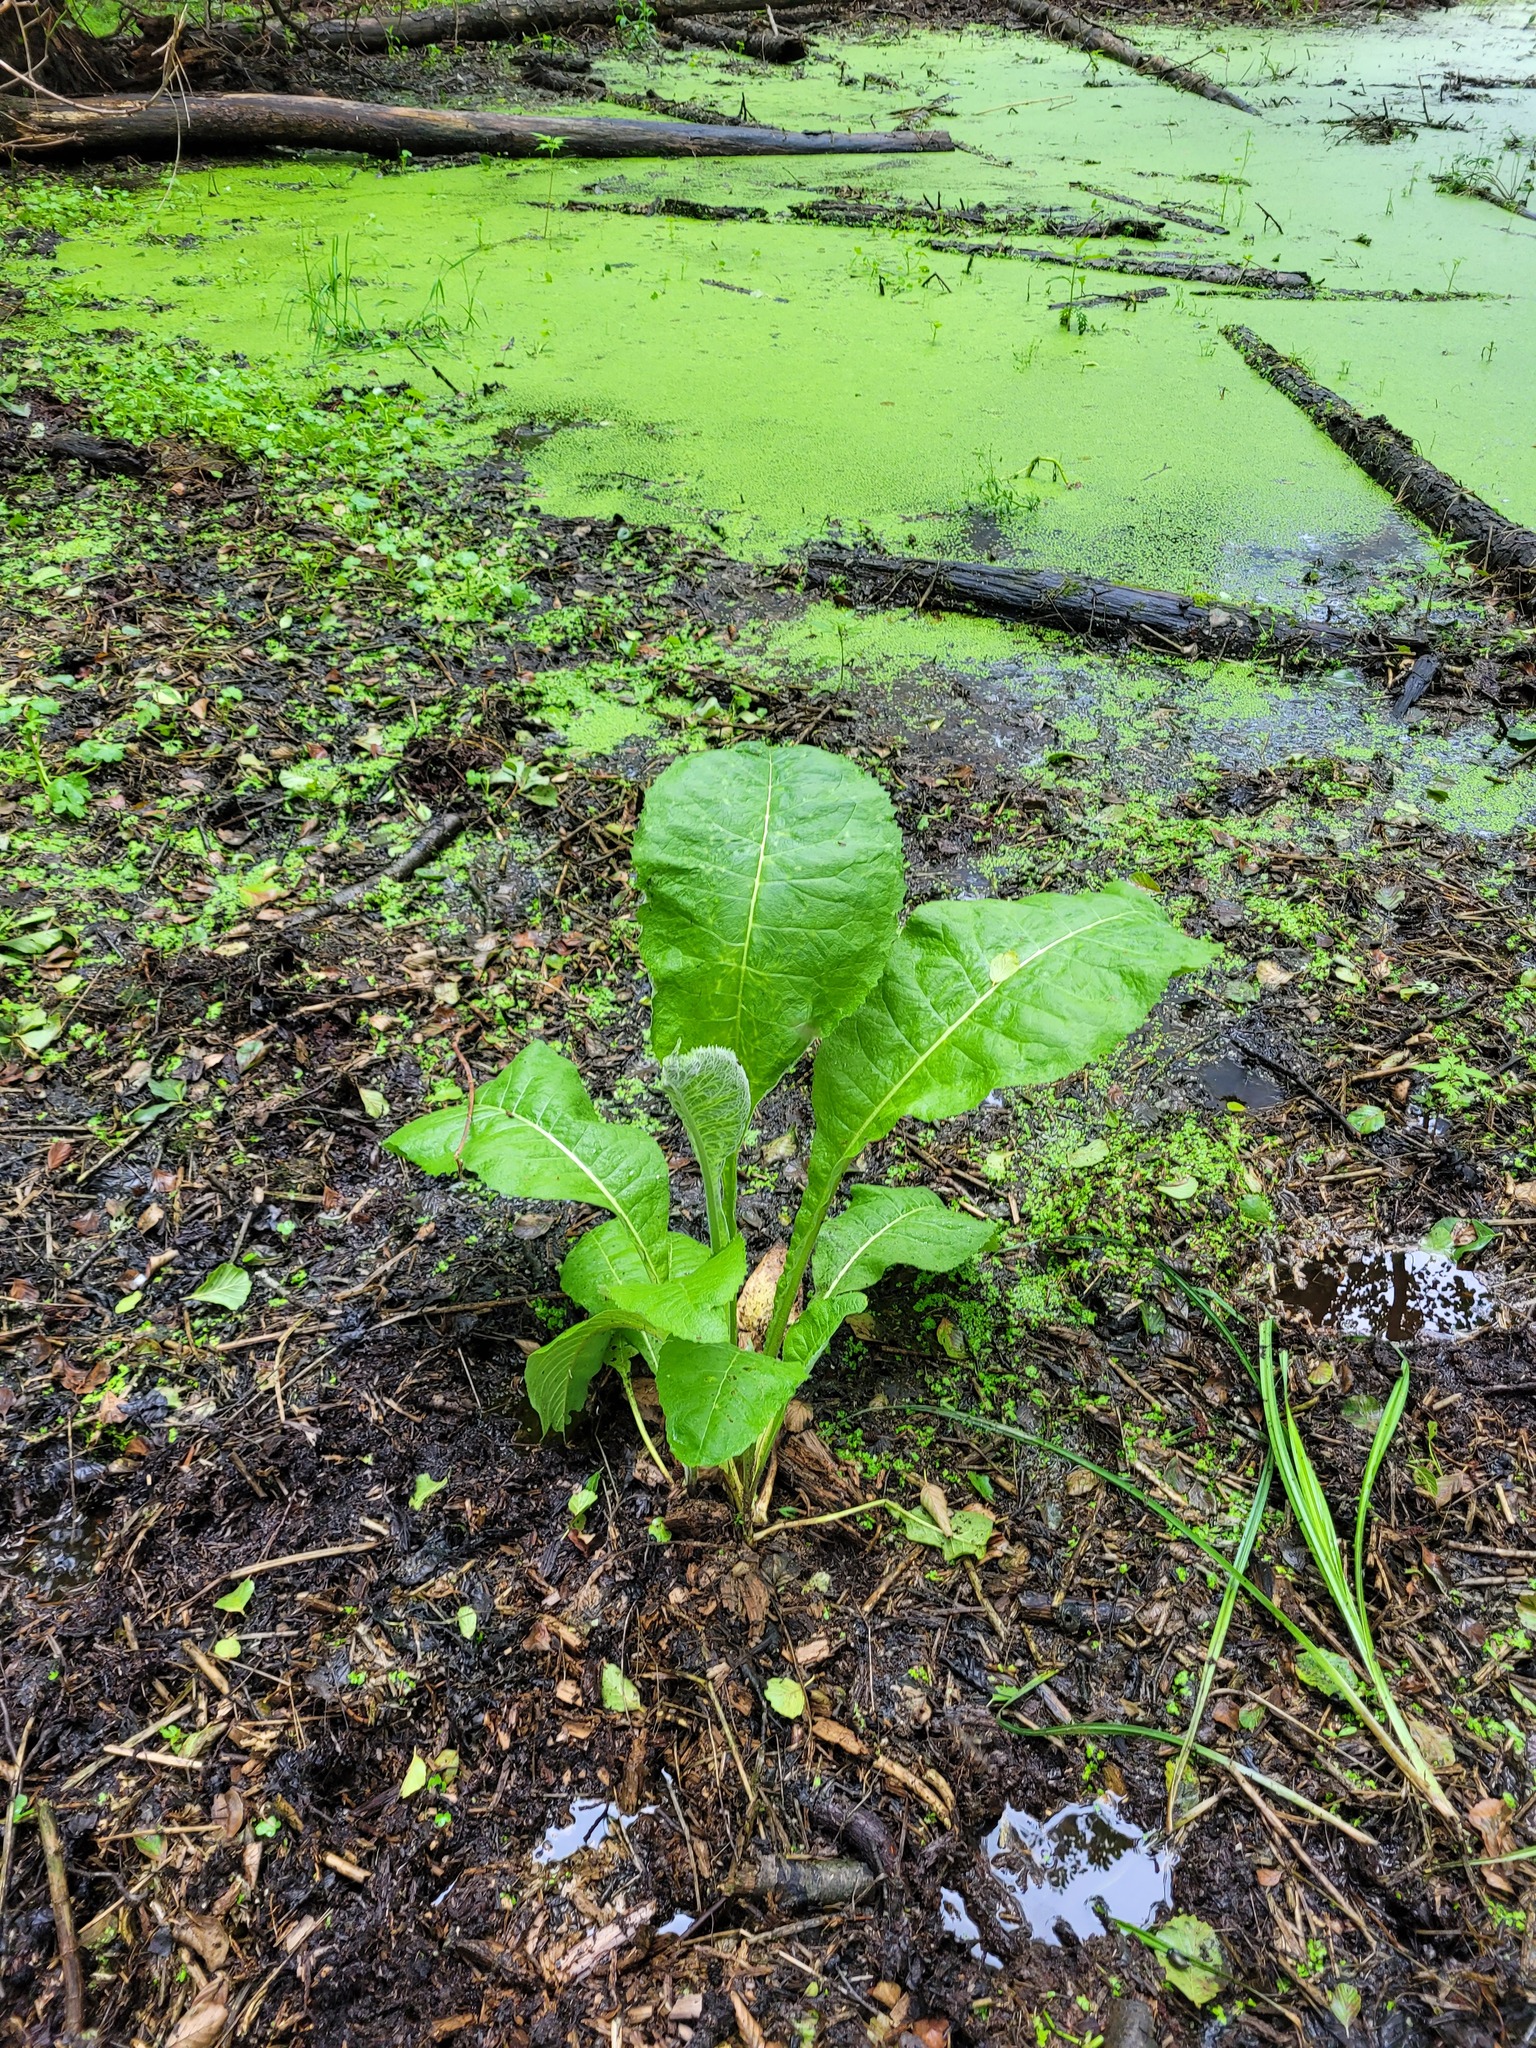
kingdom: Plantae
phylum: Tracheophyta
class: Magnoliopsida
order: Asterales
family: Asteraceae
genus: Inula
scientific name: Inula helenium
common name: Elecampane
